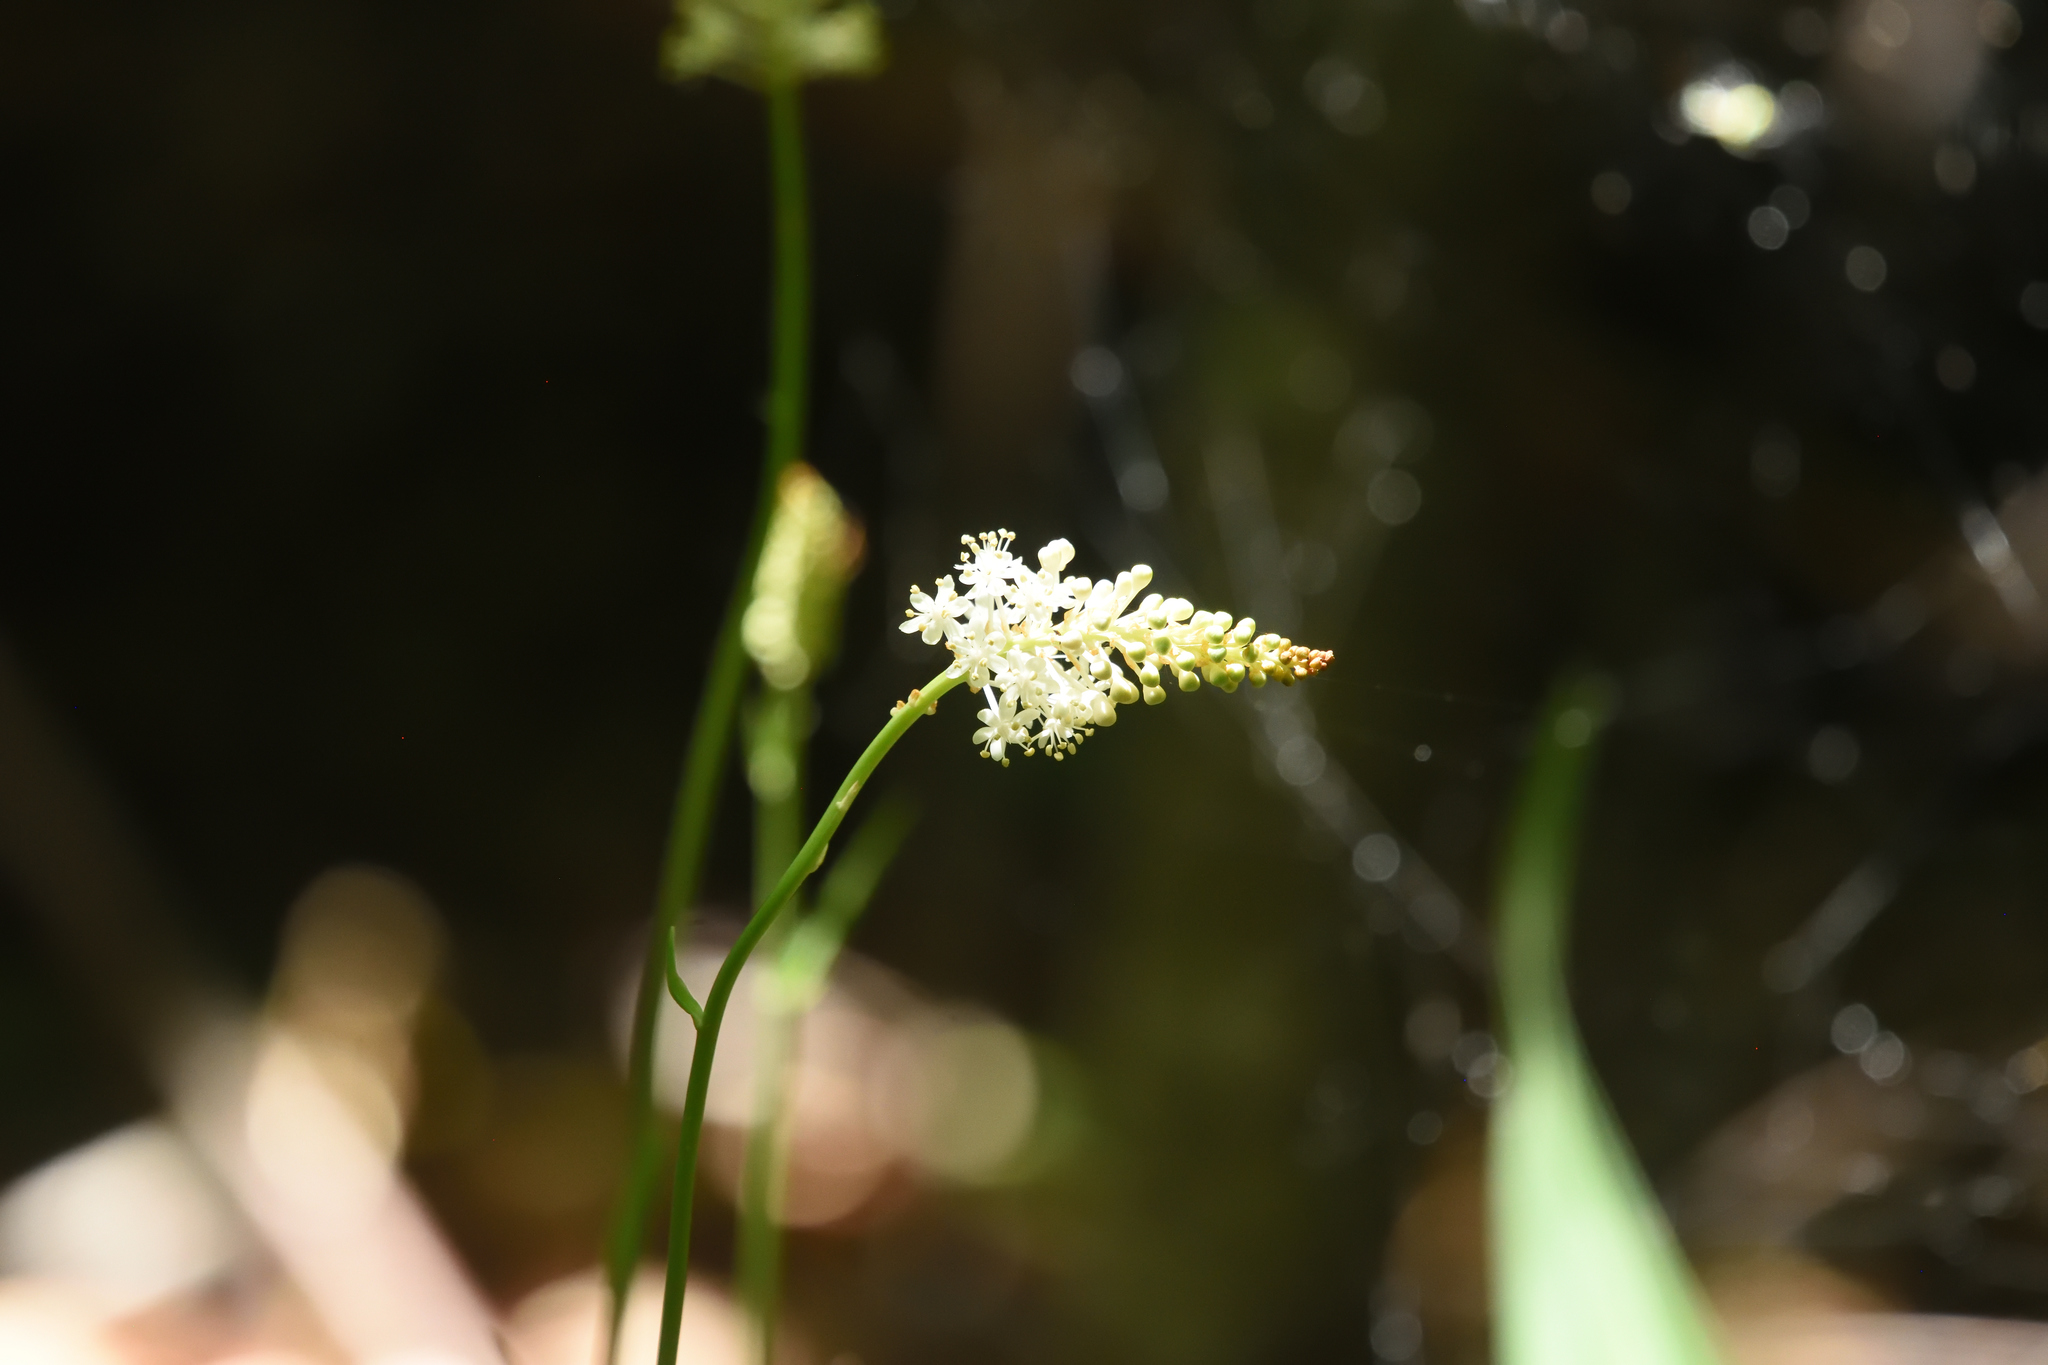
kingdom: Plantae
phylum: Tracheophyta
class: Liliopsida
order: Liliales
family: Melanthiaceae
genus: Amianthium
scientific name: Amianthium muscitoxicum
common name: Fly-poison
